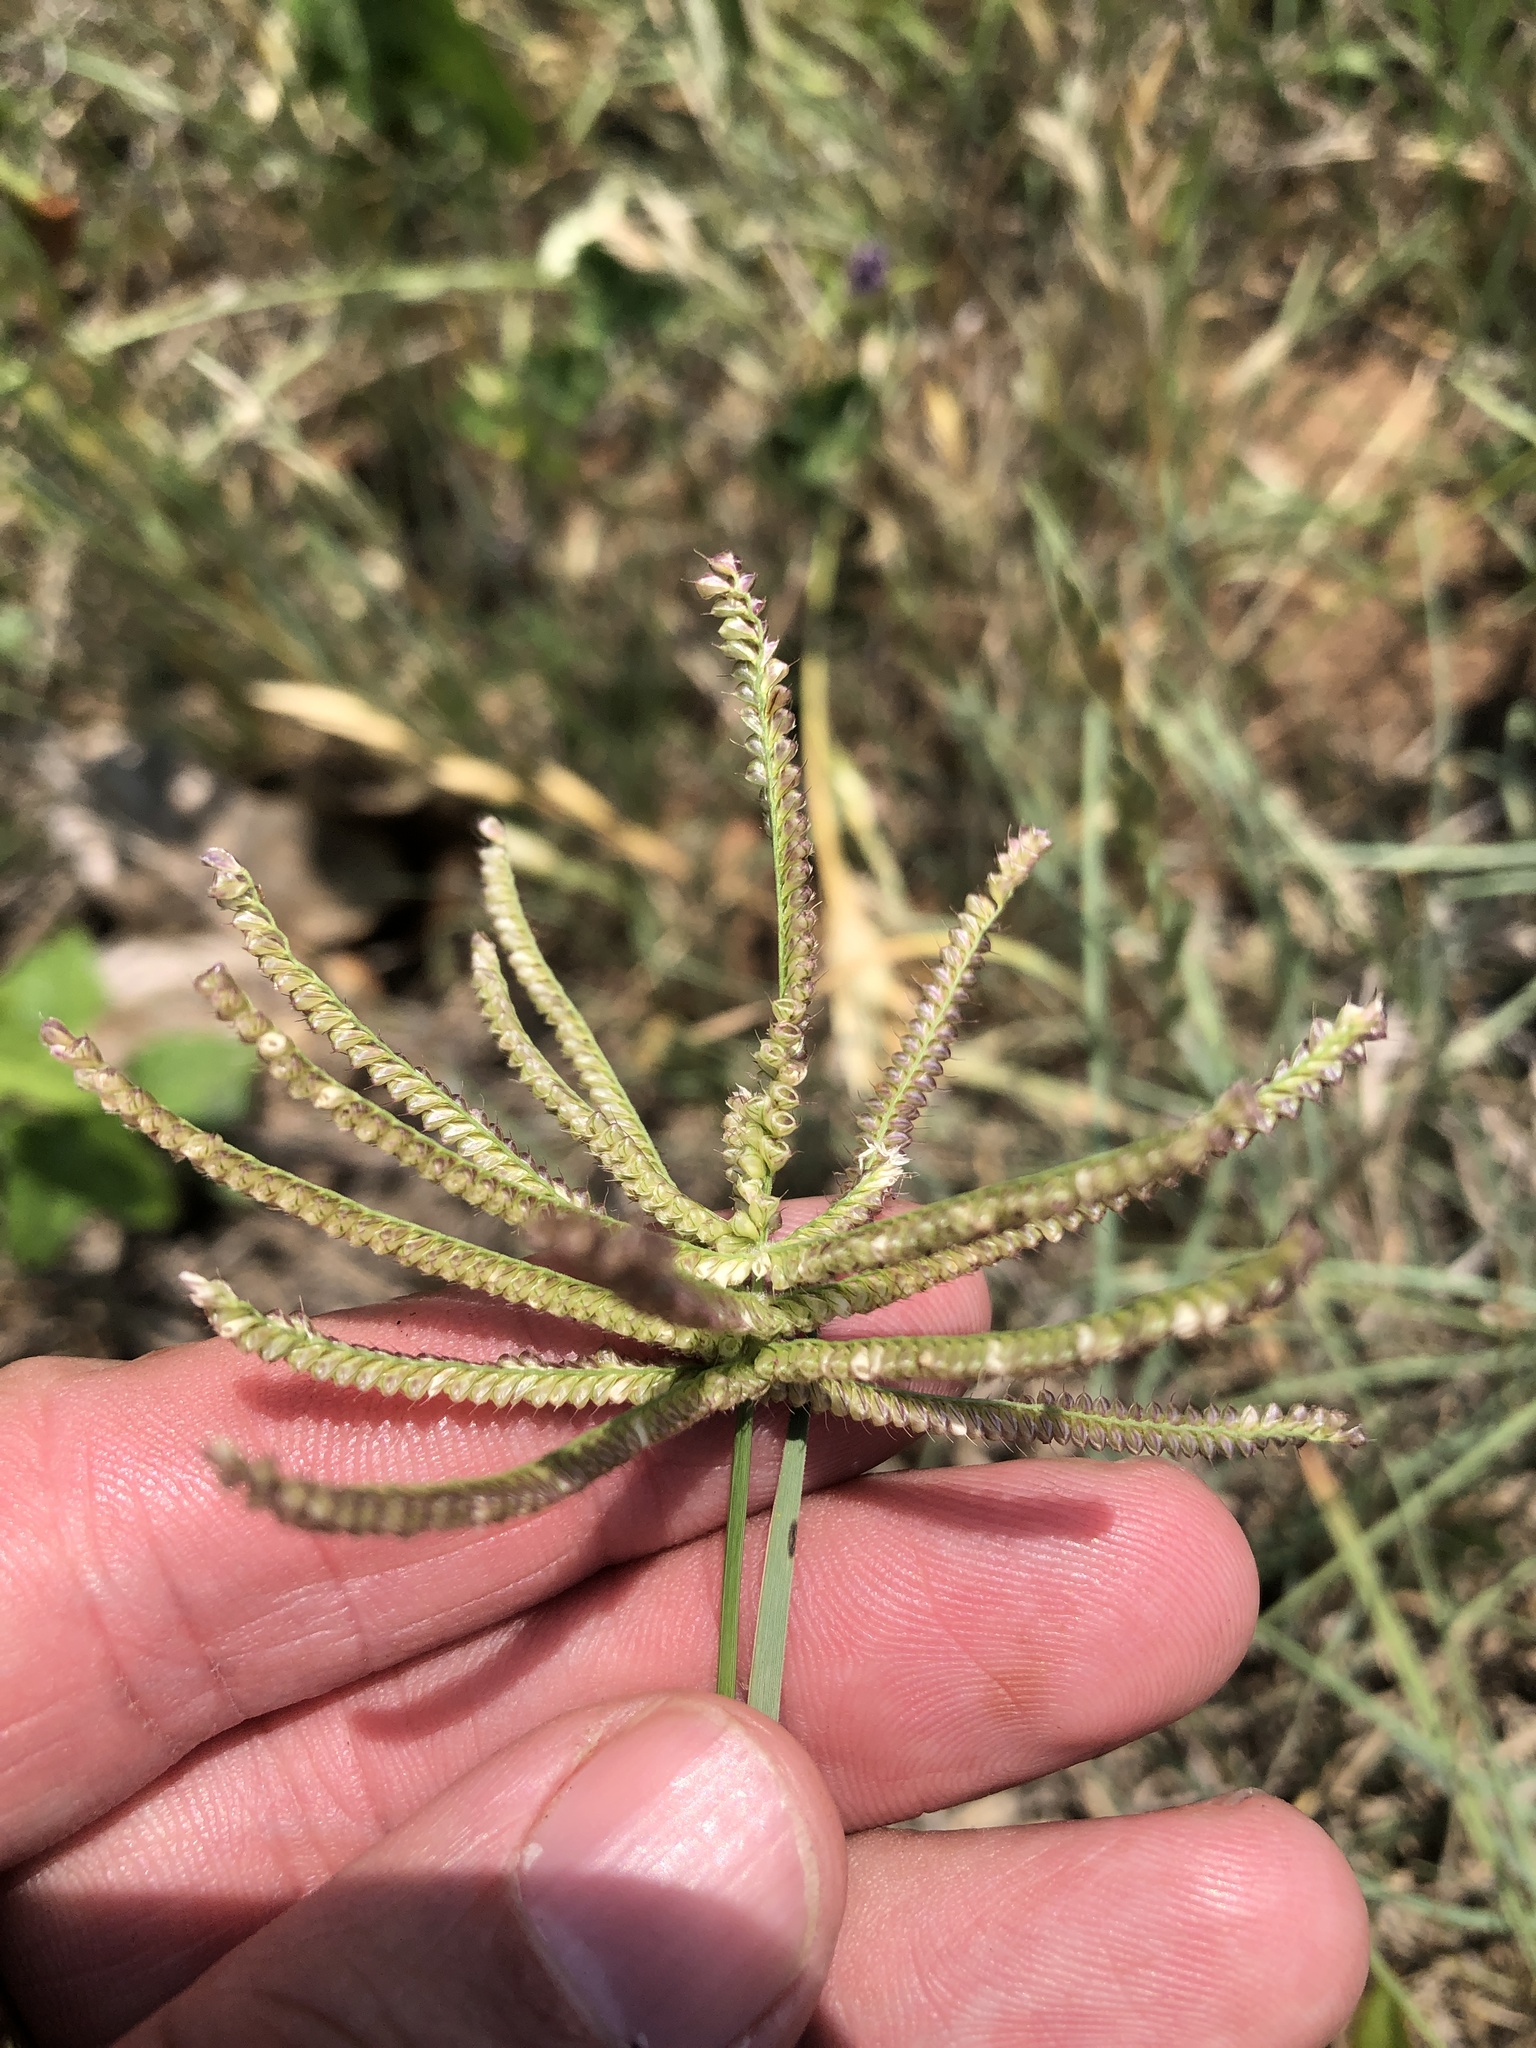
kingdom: Plantae
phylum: Tracheophyta
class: Liliopsida
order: Poales
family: Poaceae
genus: Chloris
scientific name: Chloris cucullata
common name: Hooded windmill grass
